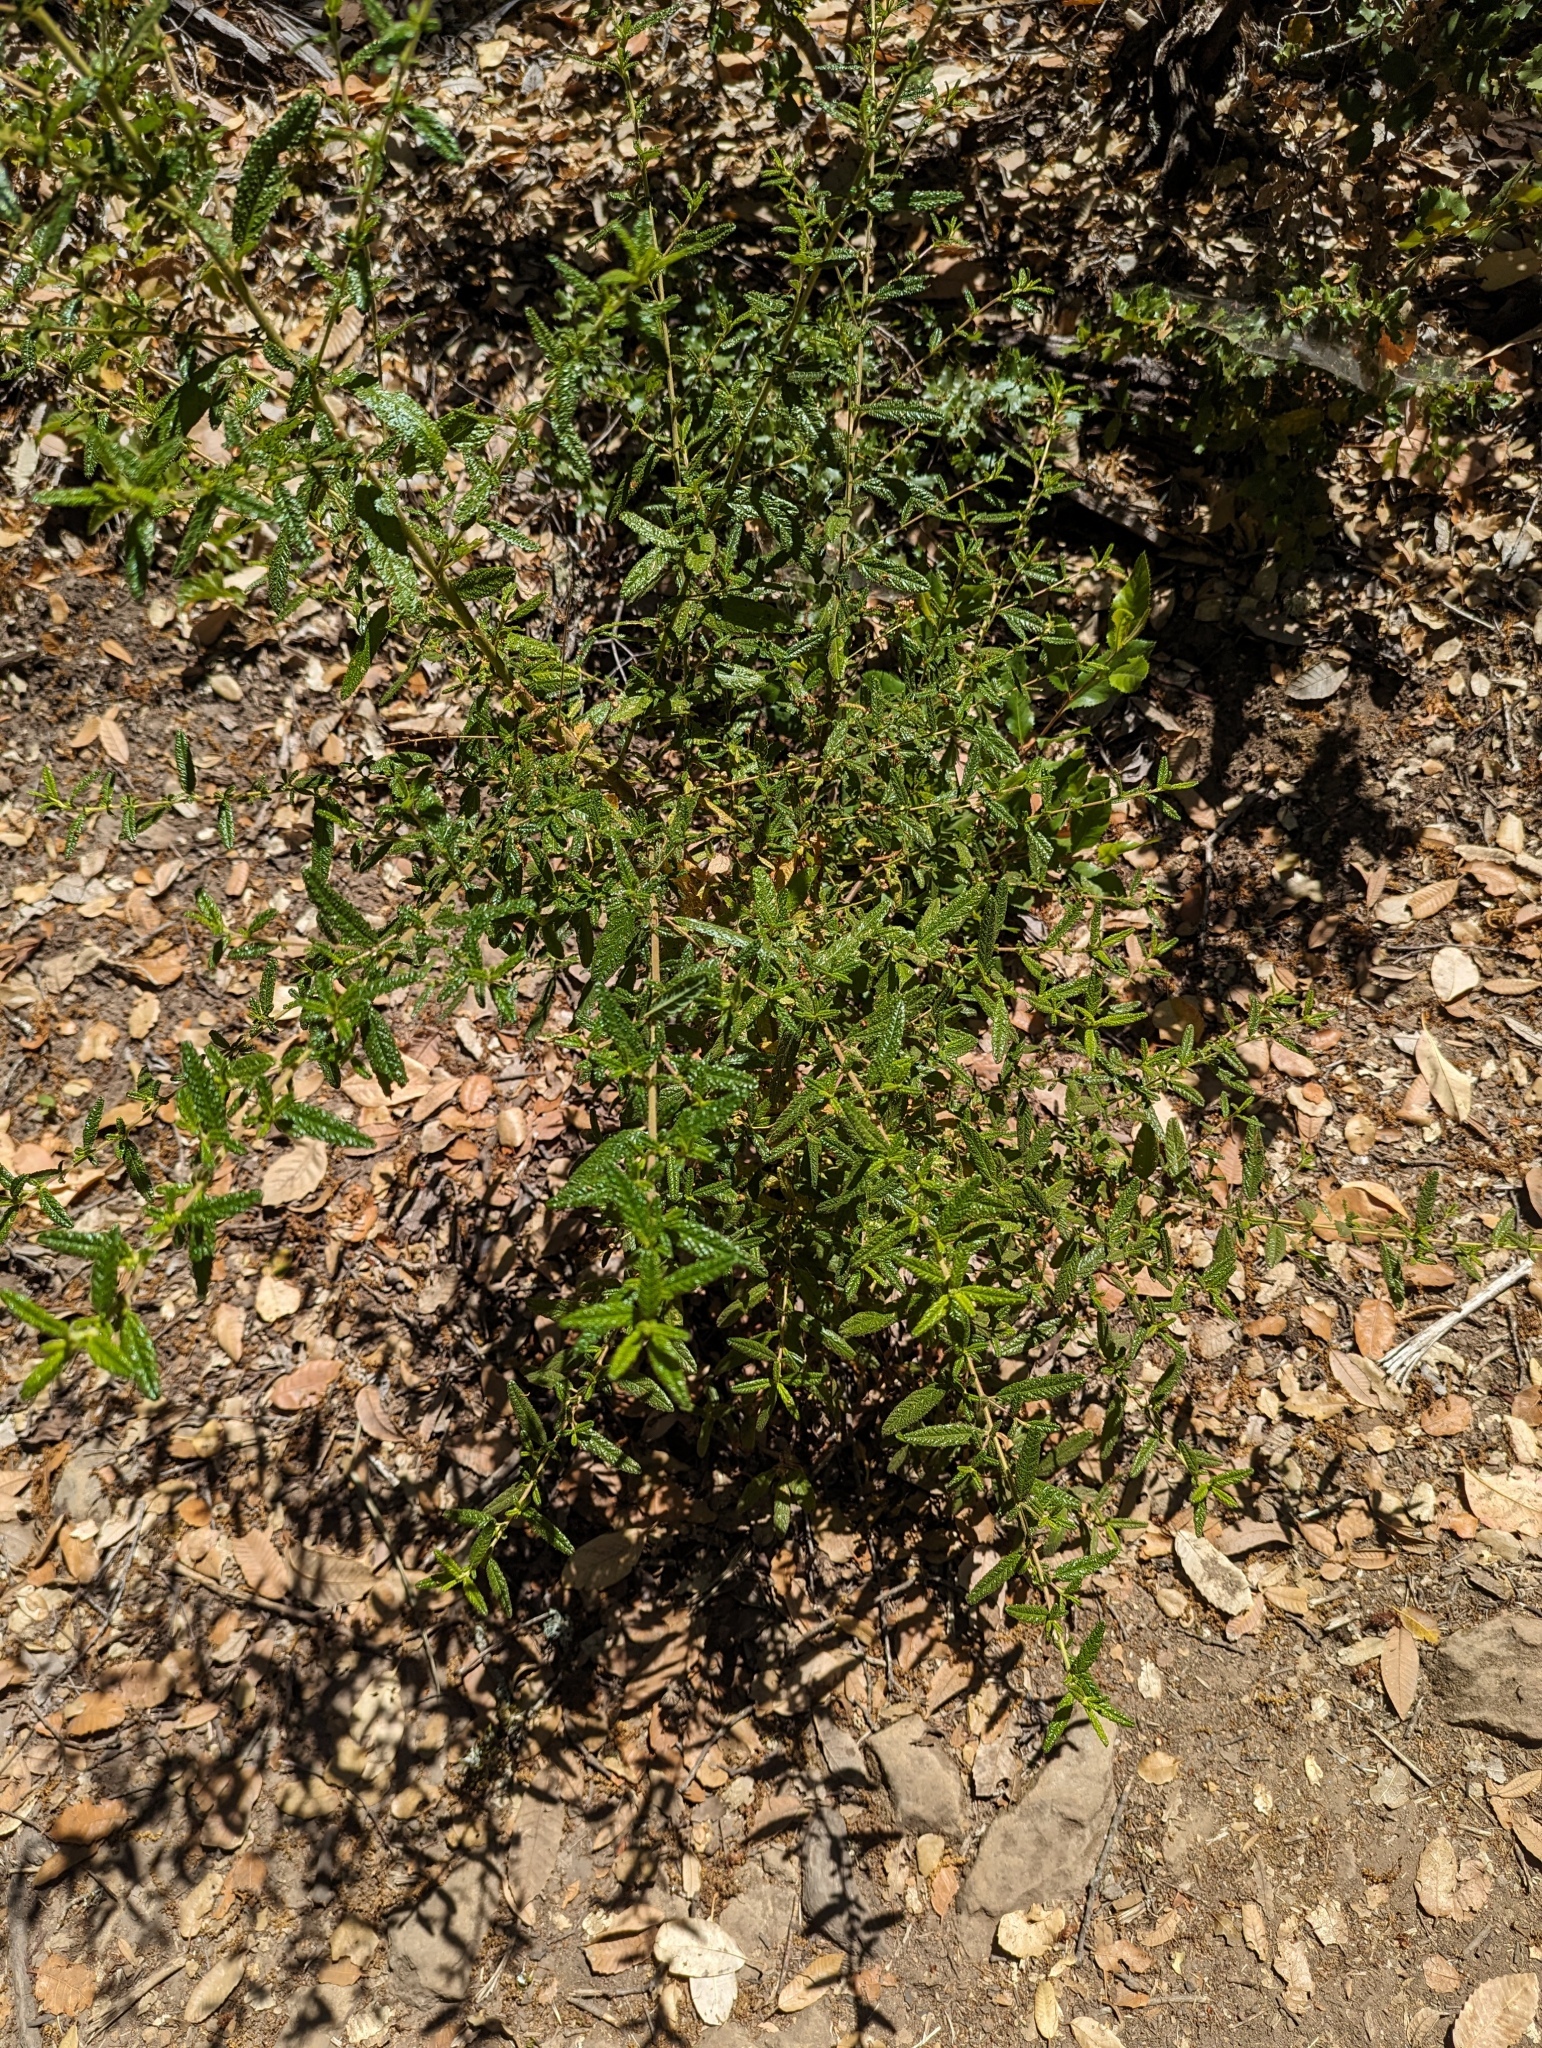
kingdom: Plantae
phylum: Tracheophyta
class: Magnoliopsida
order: Rosales
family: Rhamnaceae
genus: Ceanothus
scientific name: Ceanothus papillosus
